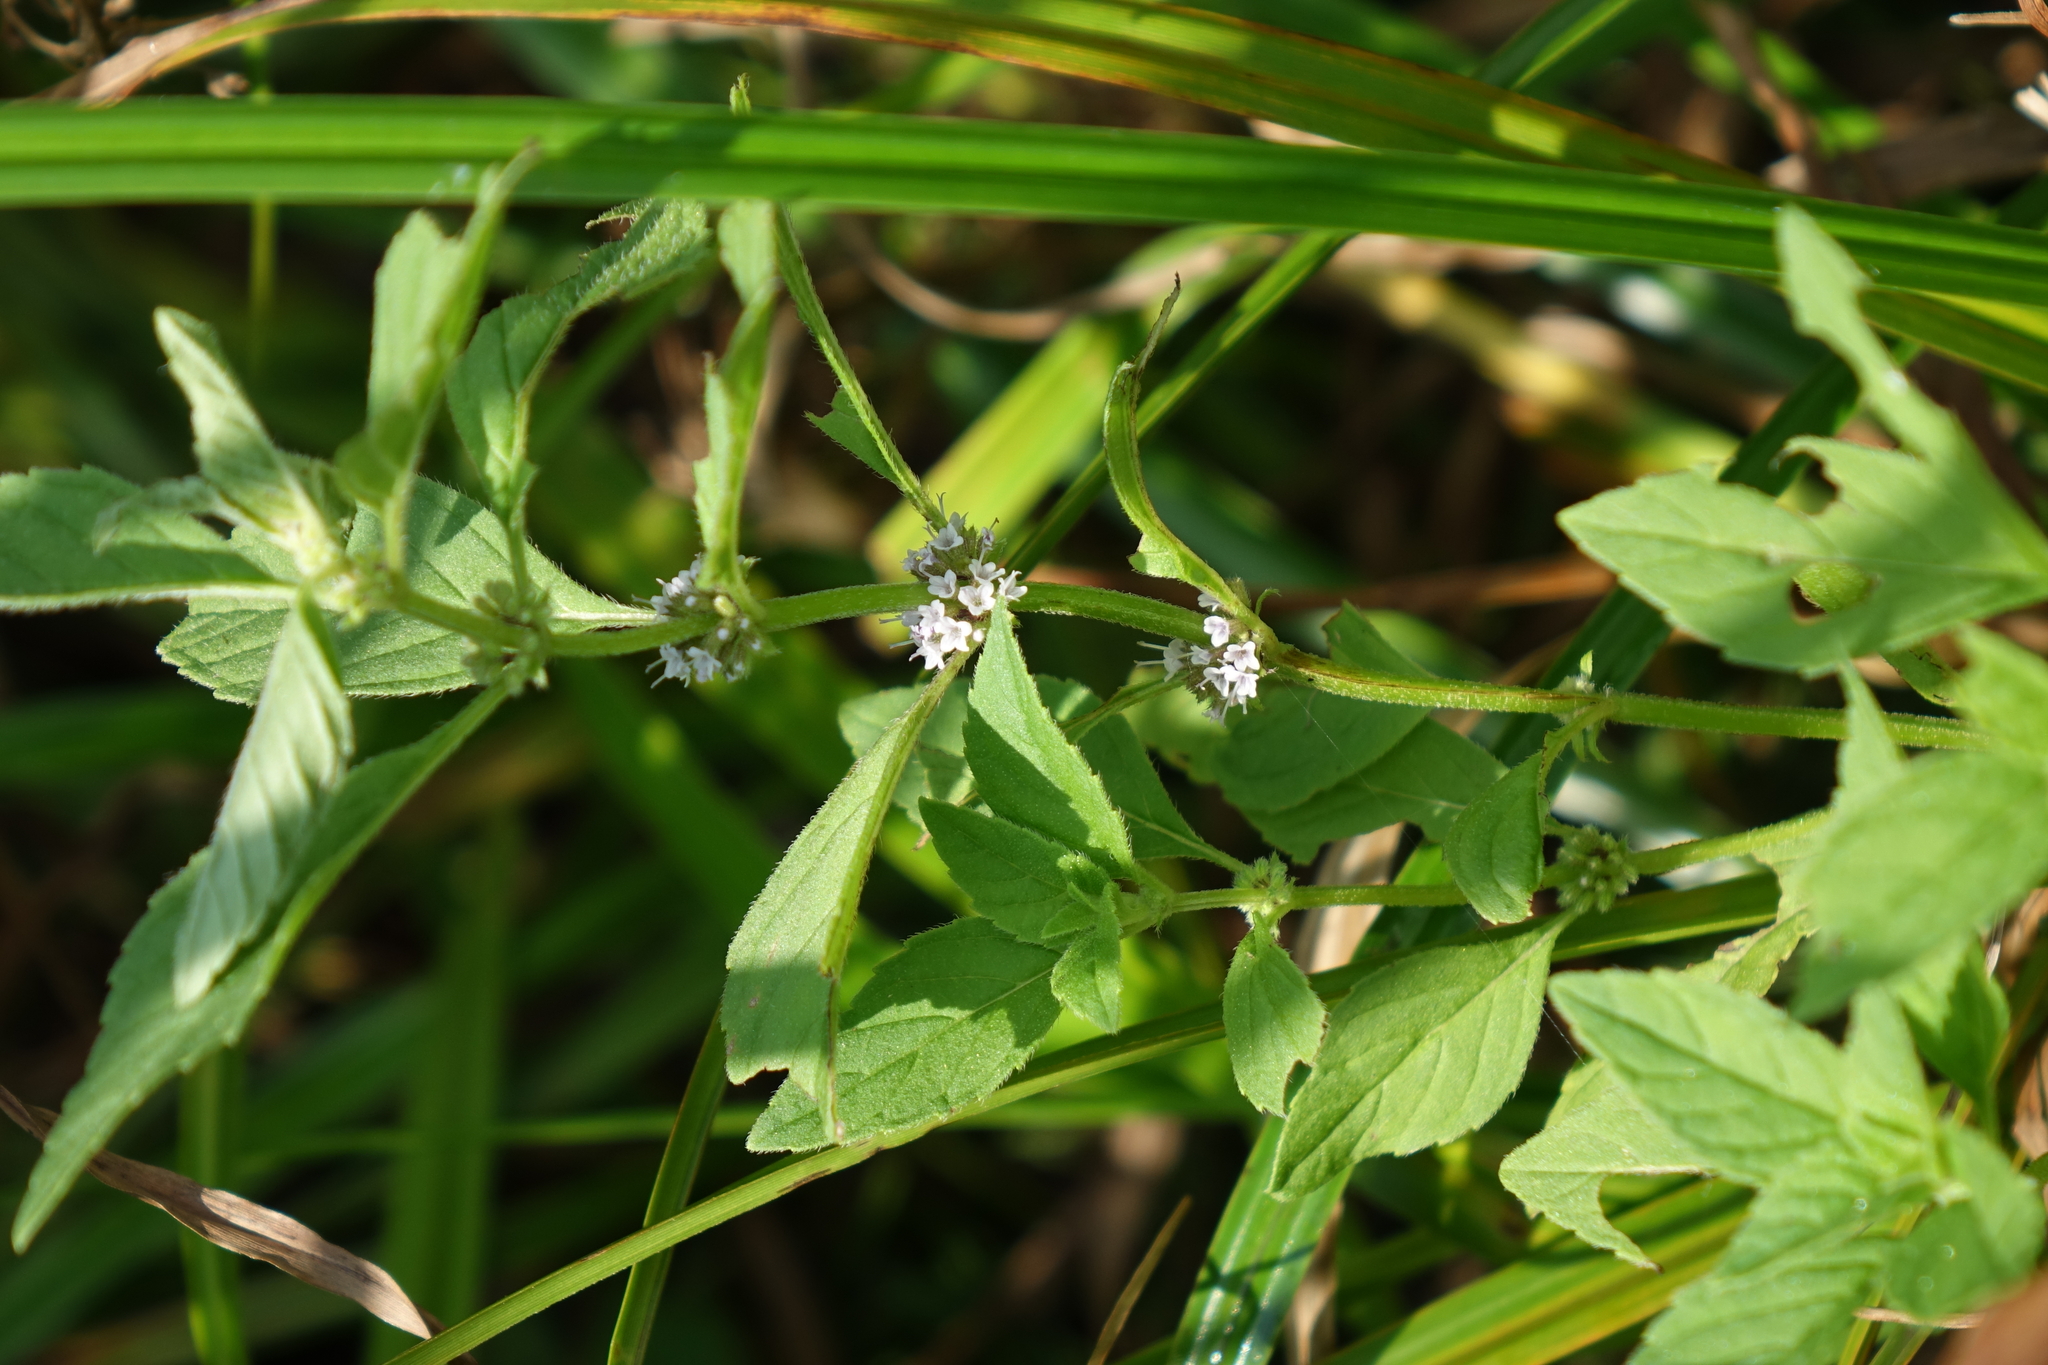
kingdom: Plantae
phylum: Tracheophyta
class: Magnoliopsida
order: Lamiales
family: Lamiaceae
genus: Mentha
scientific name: Mentha arvensis
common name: Corn mint
